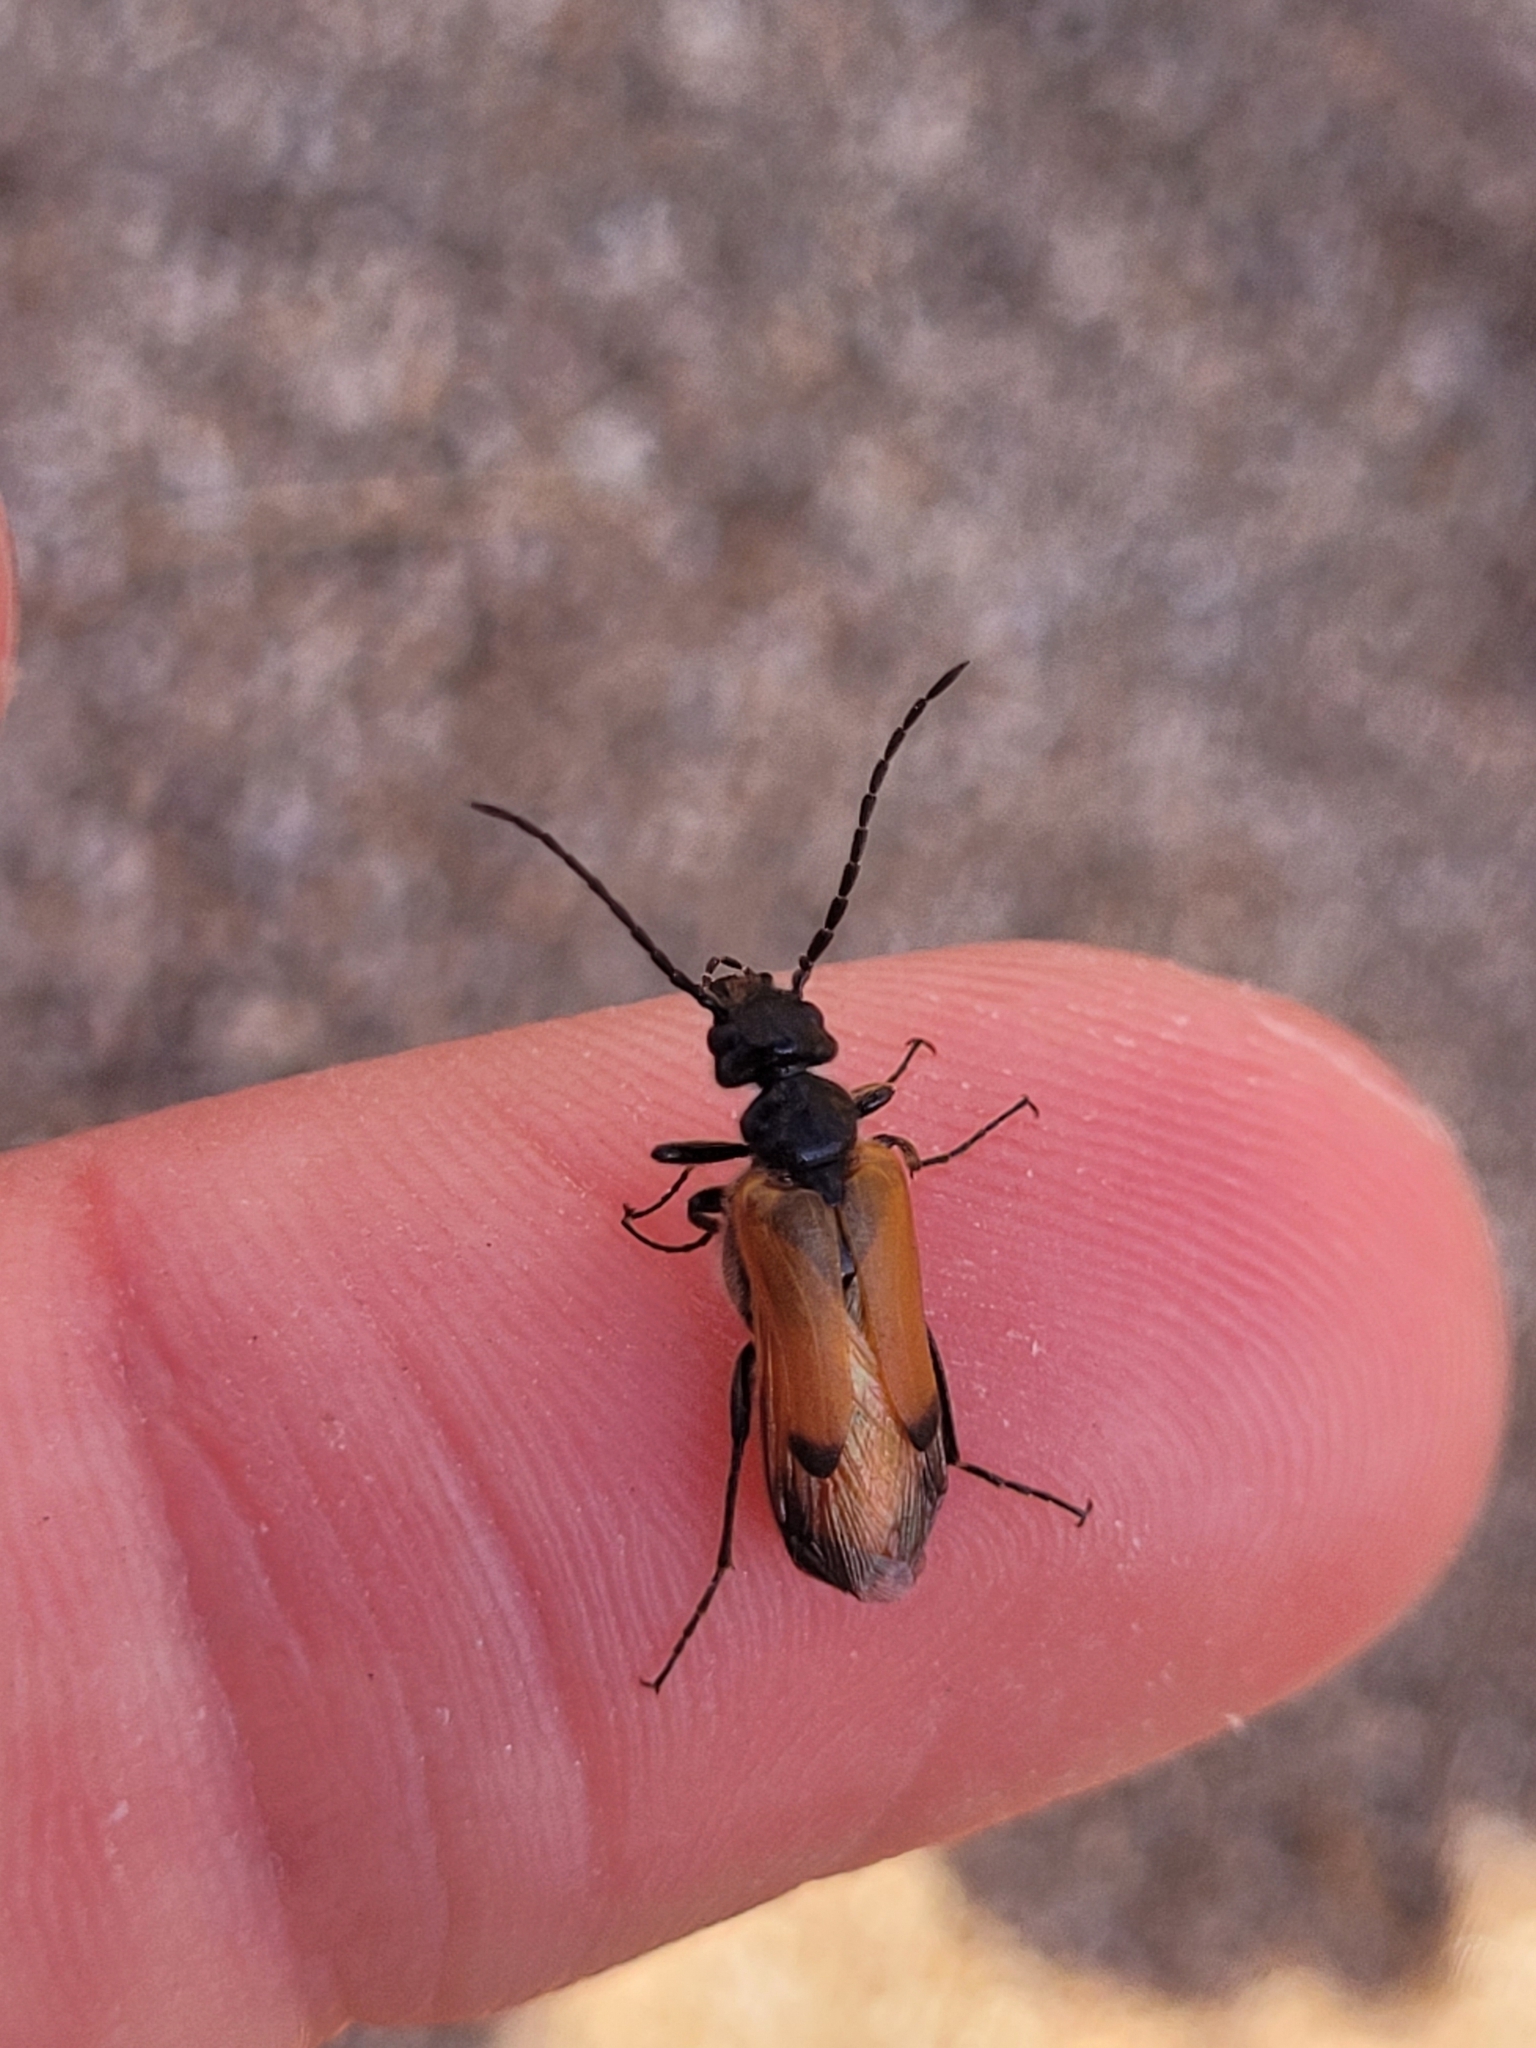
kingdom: Animalia
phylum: Arthropoda
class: Insecta
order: Coleoptera
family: Meloidae
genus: Stenoria
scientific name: Stenoria analis
